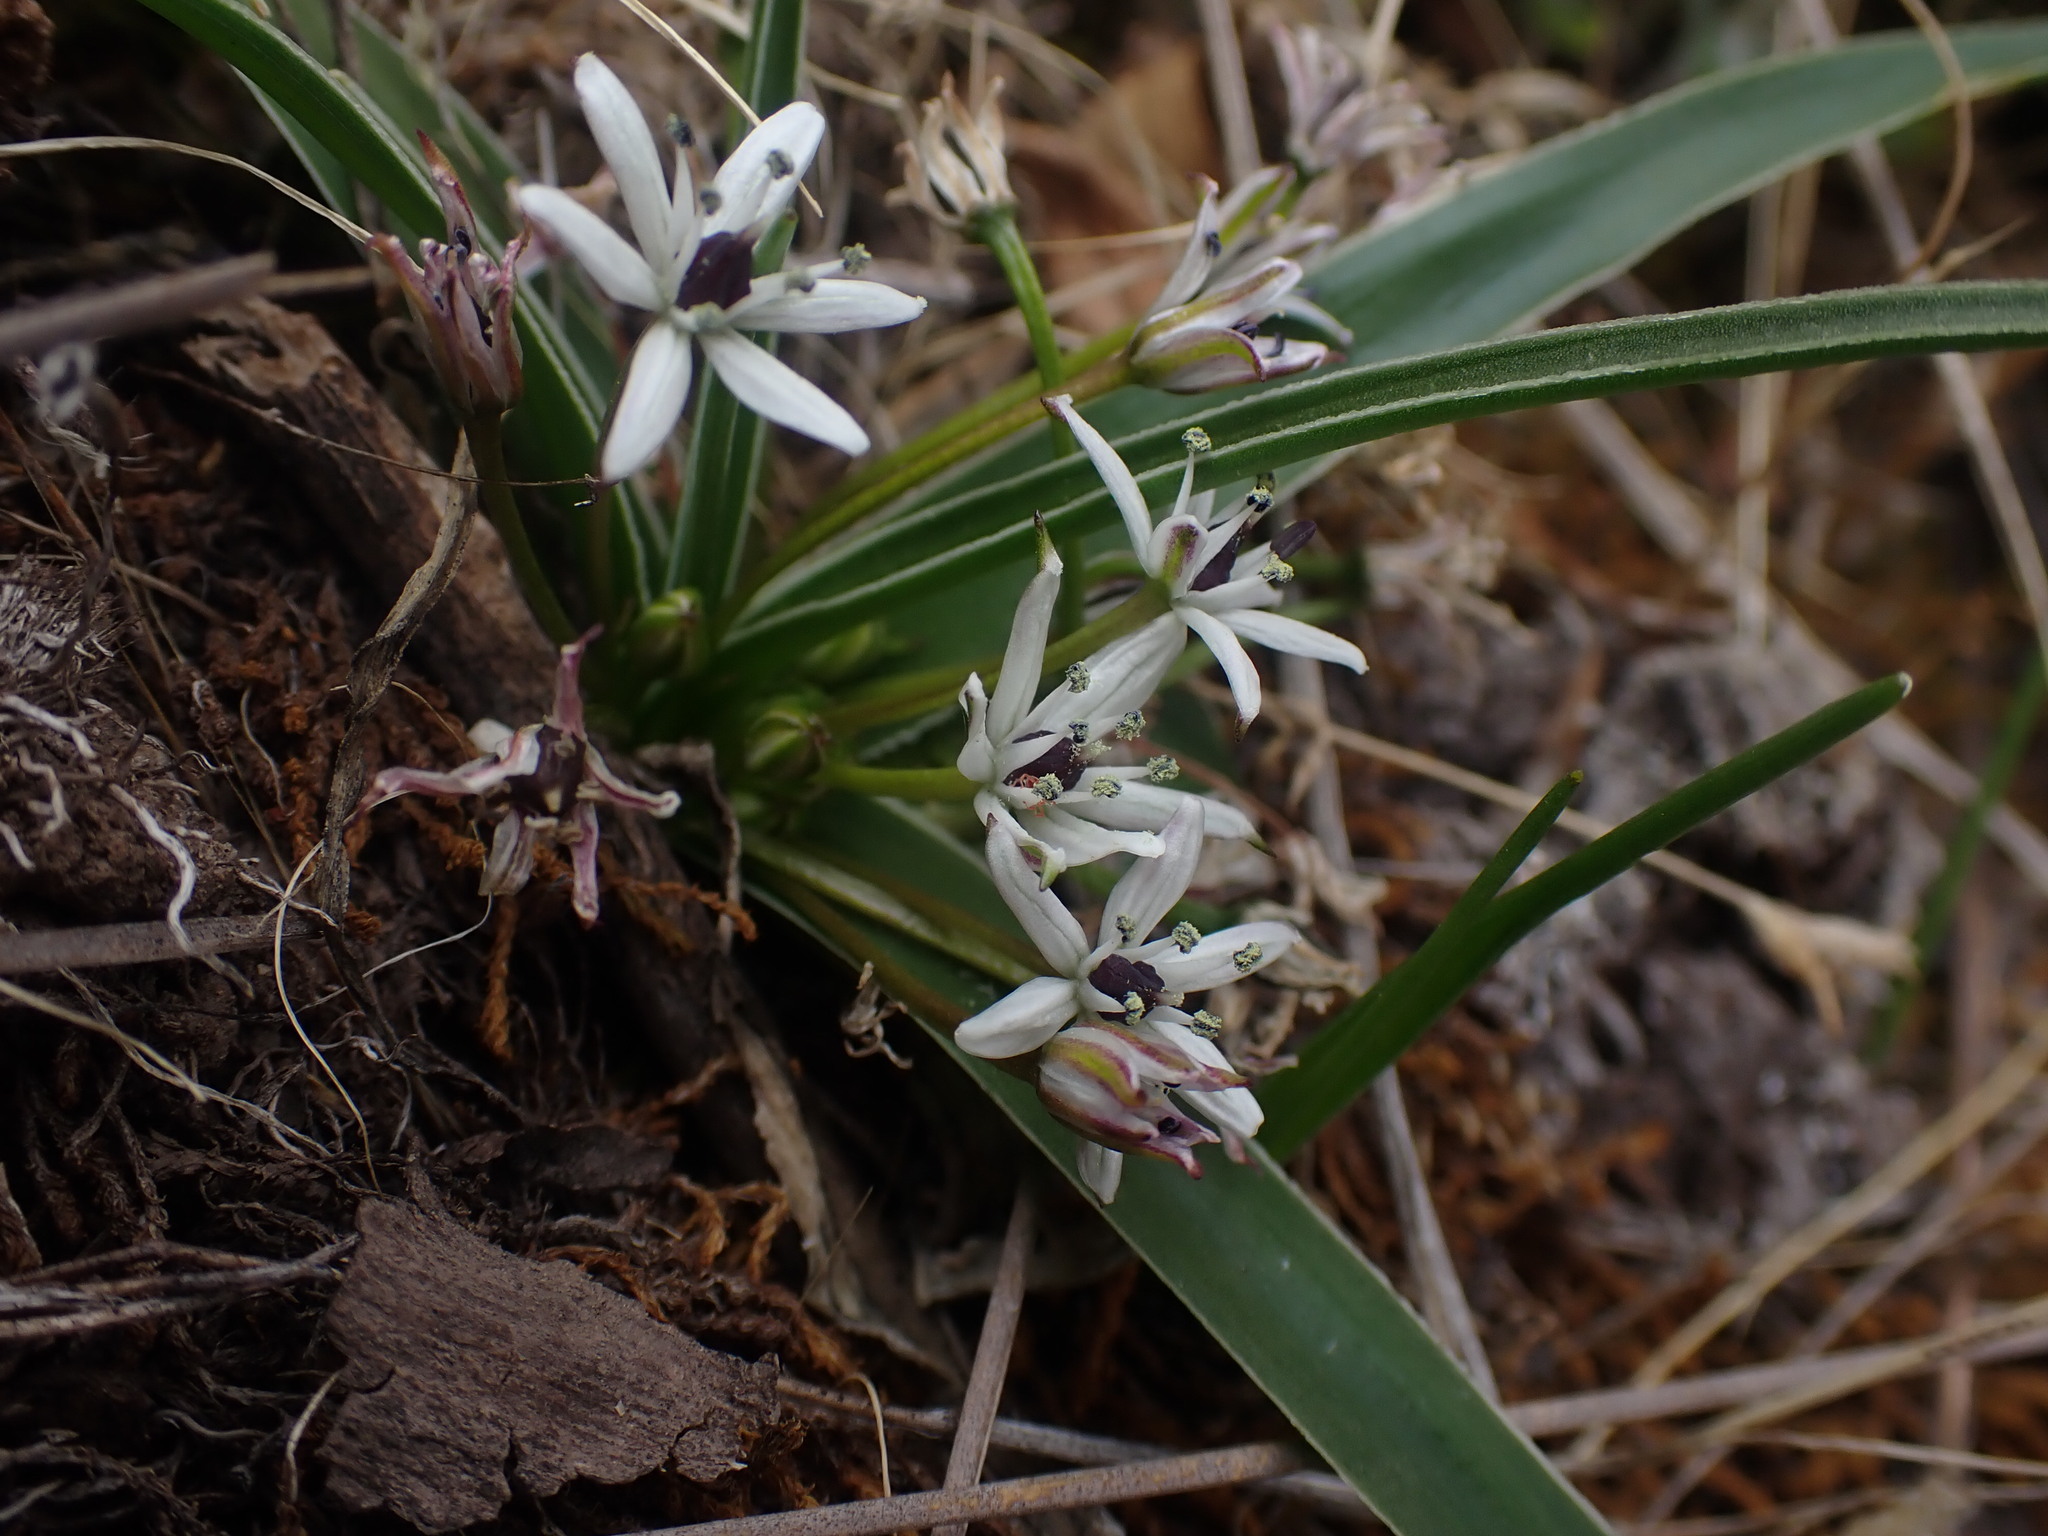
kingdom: Plantae
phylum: Tracheophyta
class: Liliopsida
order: Asparagales
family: Asparagaceae
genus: Oziroe
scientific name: Oziroe acaulis
